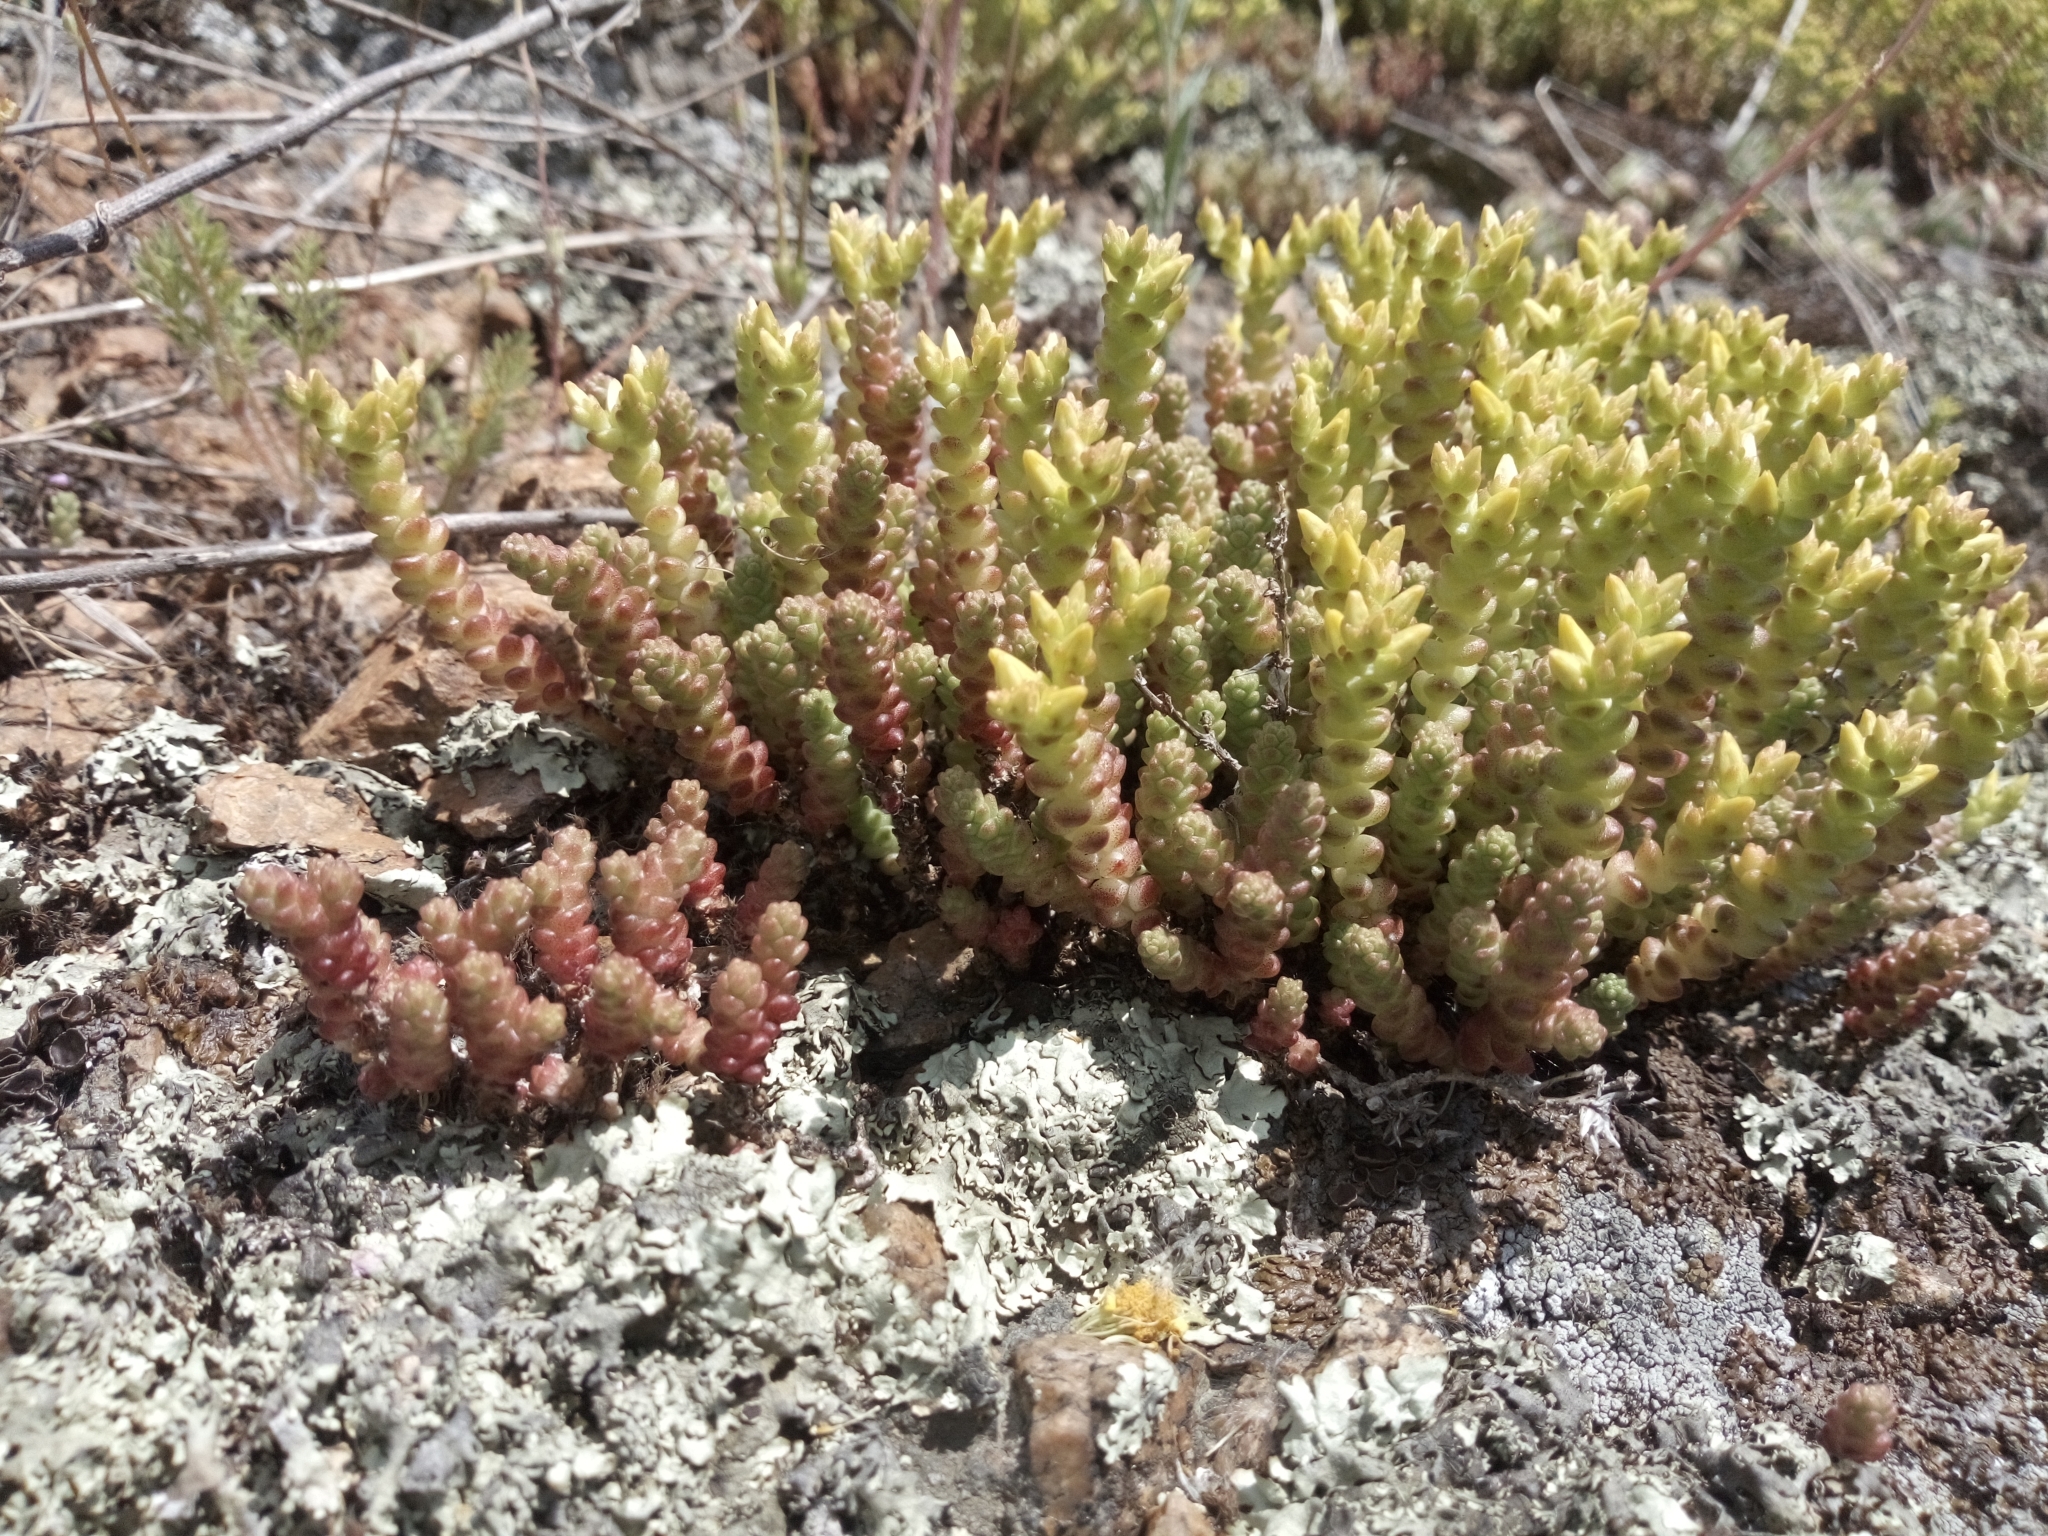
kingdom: Plantae
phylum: Tracheophyta
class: Magnoliopsida
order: Saxifragales
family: Crassulaceae
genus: Sedum
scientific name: Sedum acre
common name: Biting stonecrop
